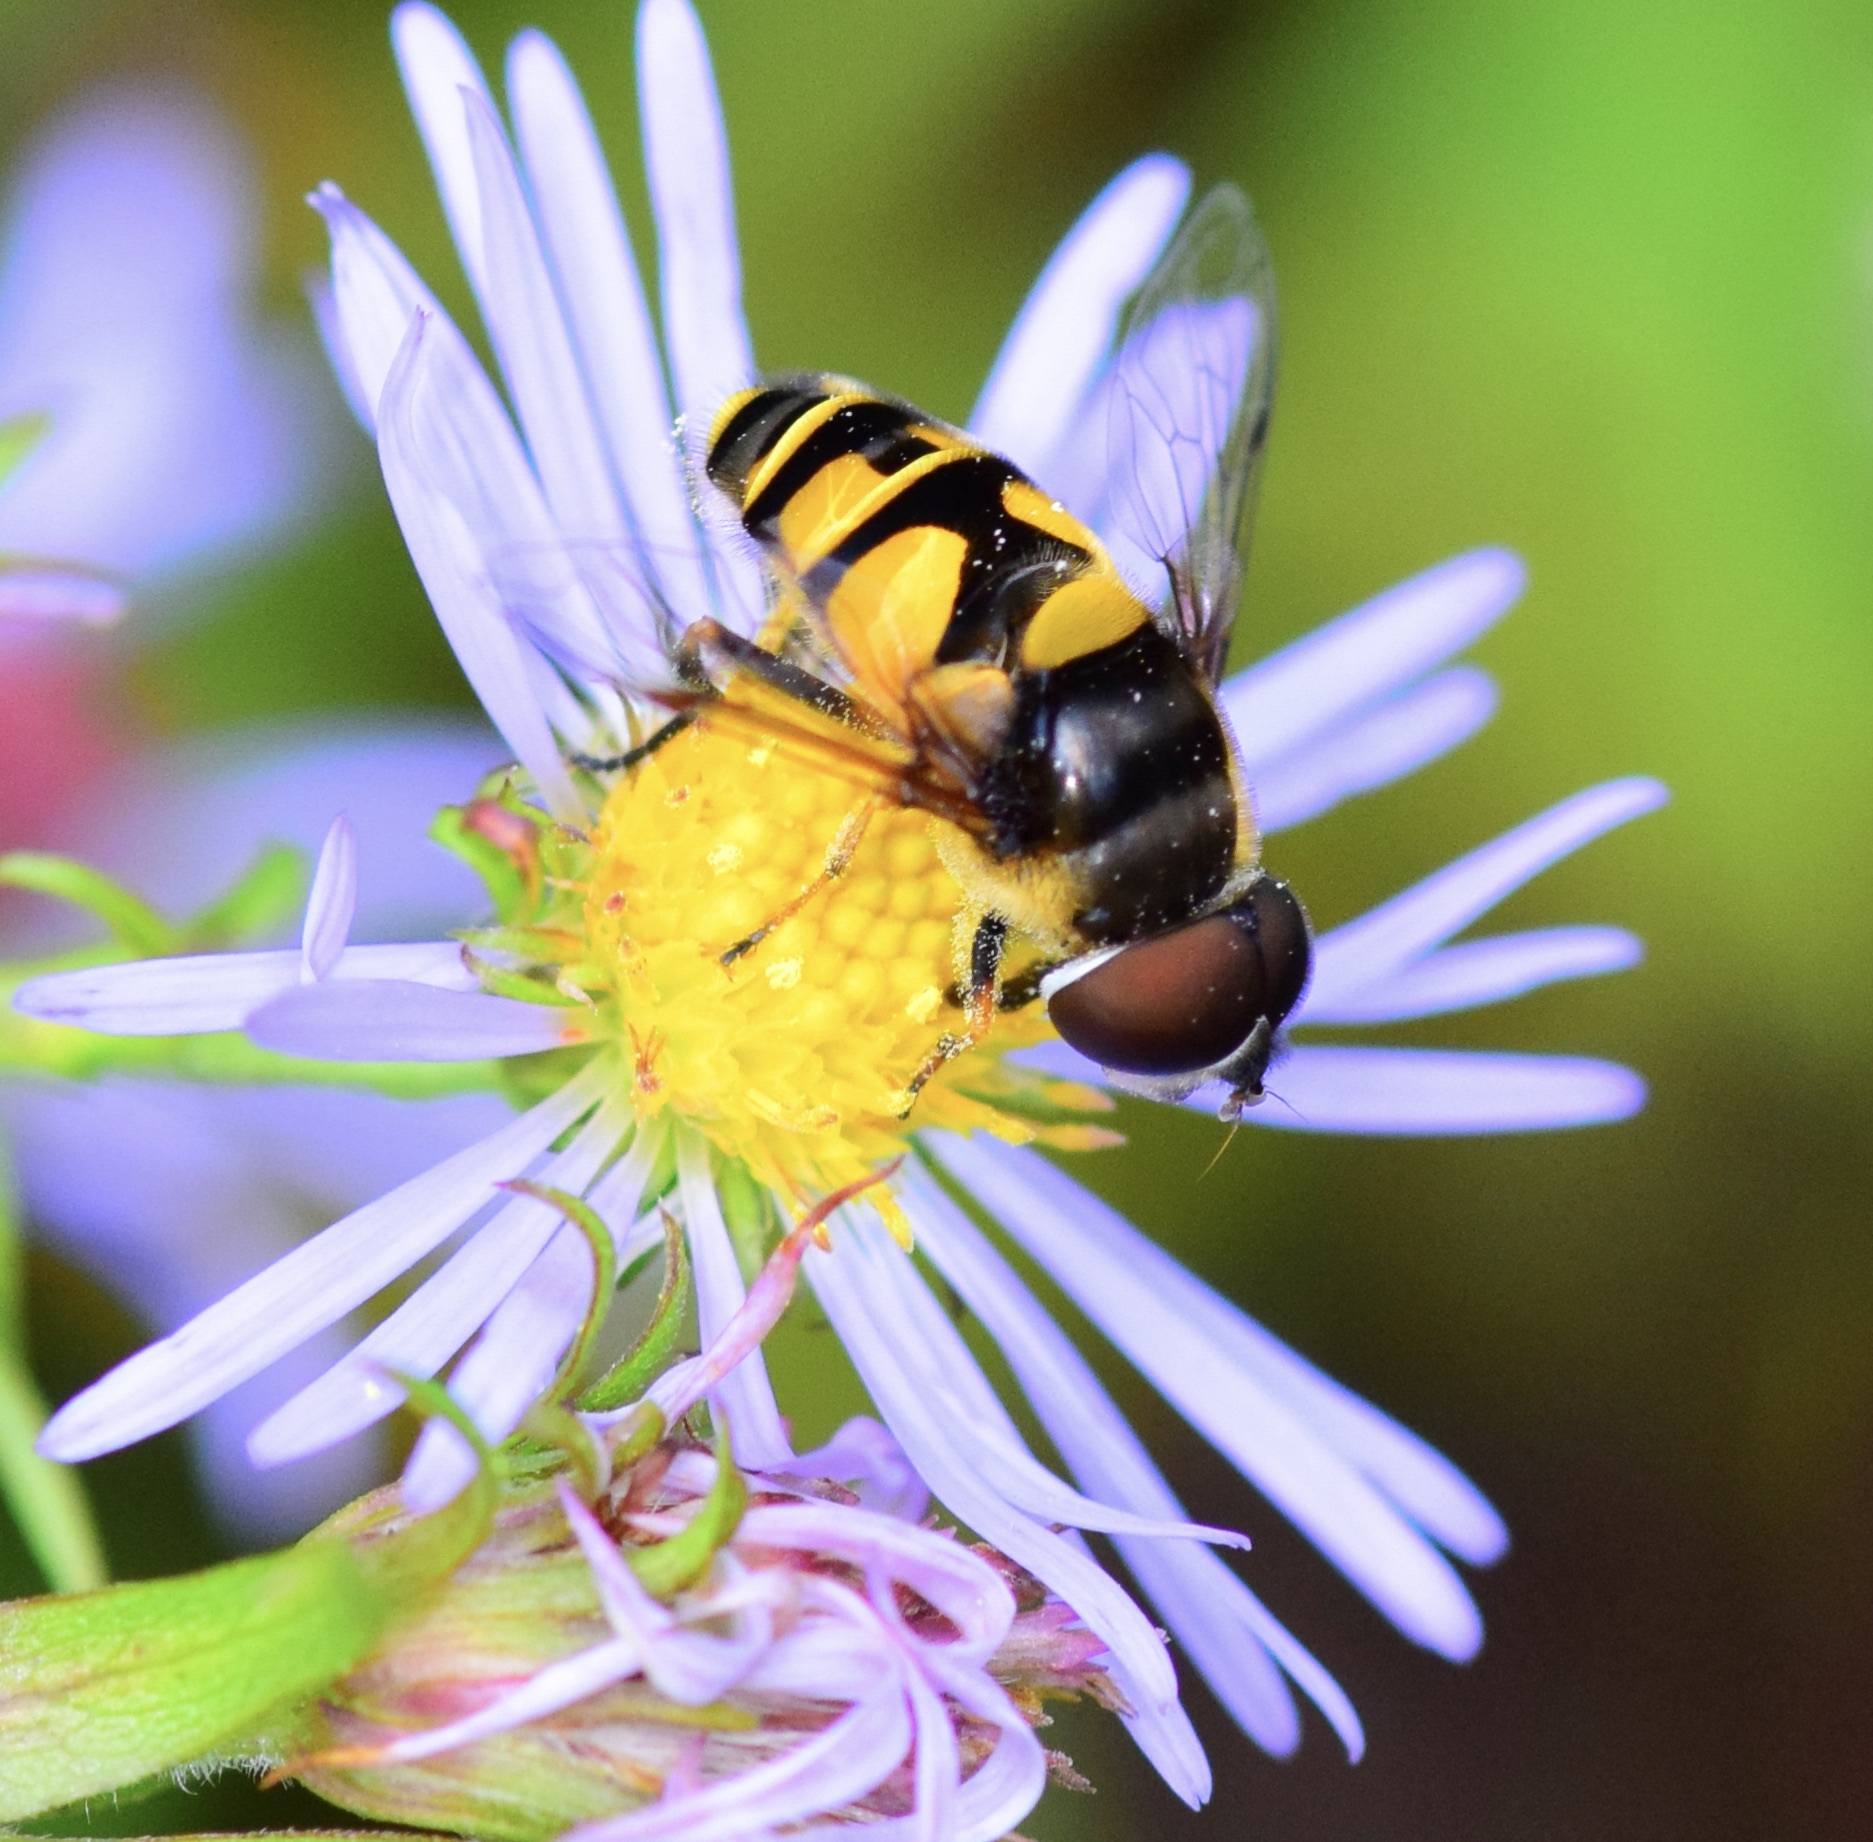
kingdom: Animalia
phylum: Arthropoda
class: Insecta
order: Diptera
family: Syrphidae
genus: Eristalis
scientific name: Eristalis transversa
